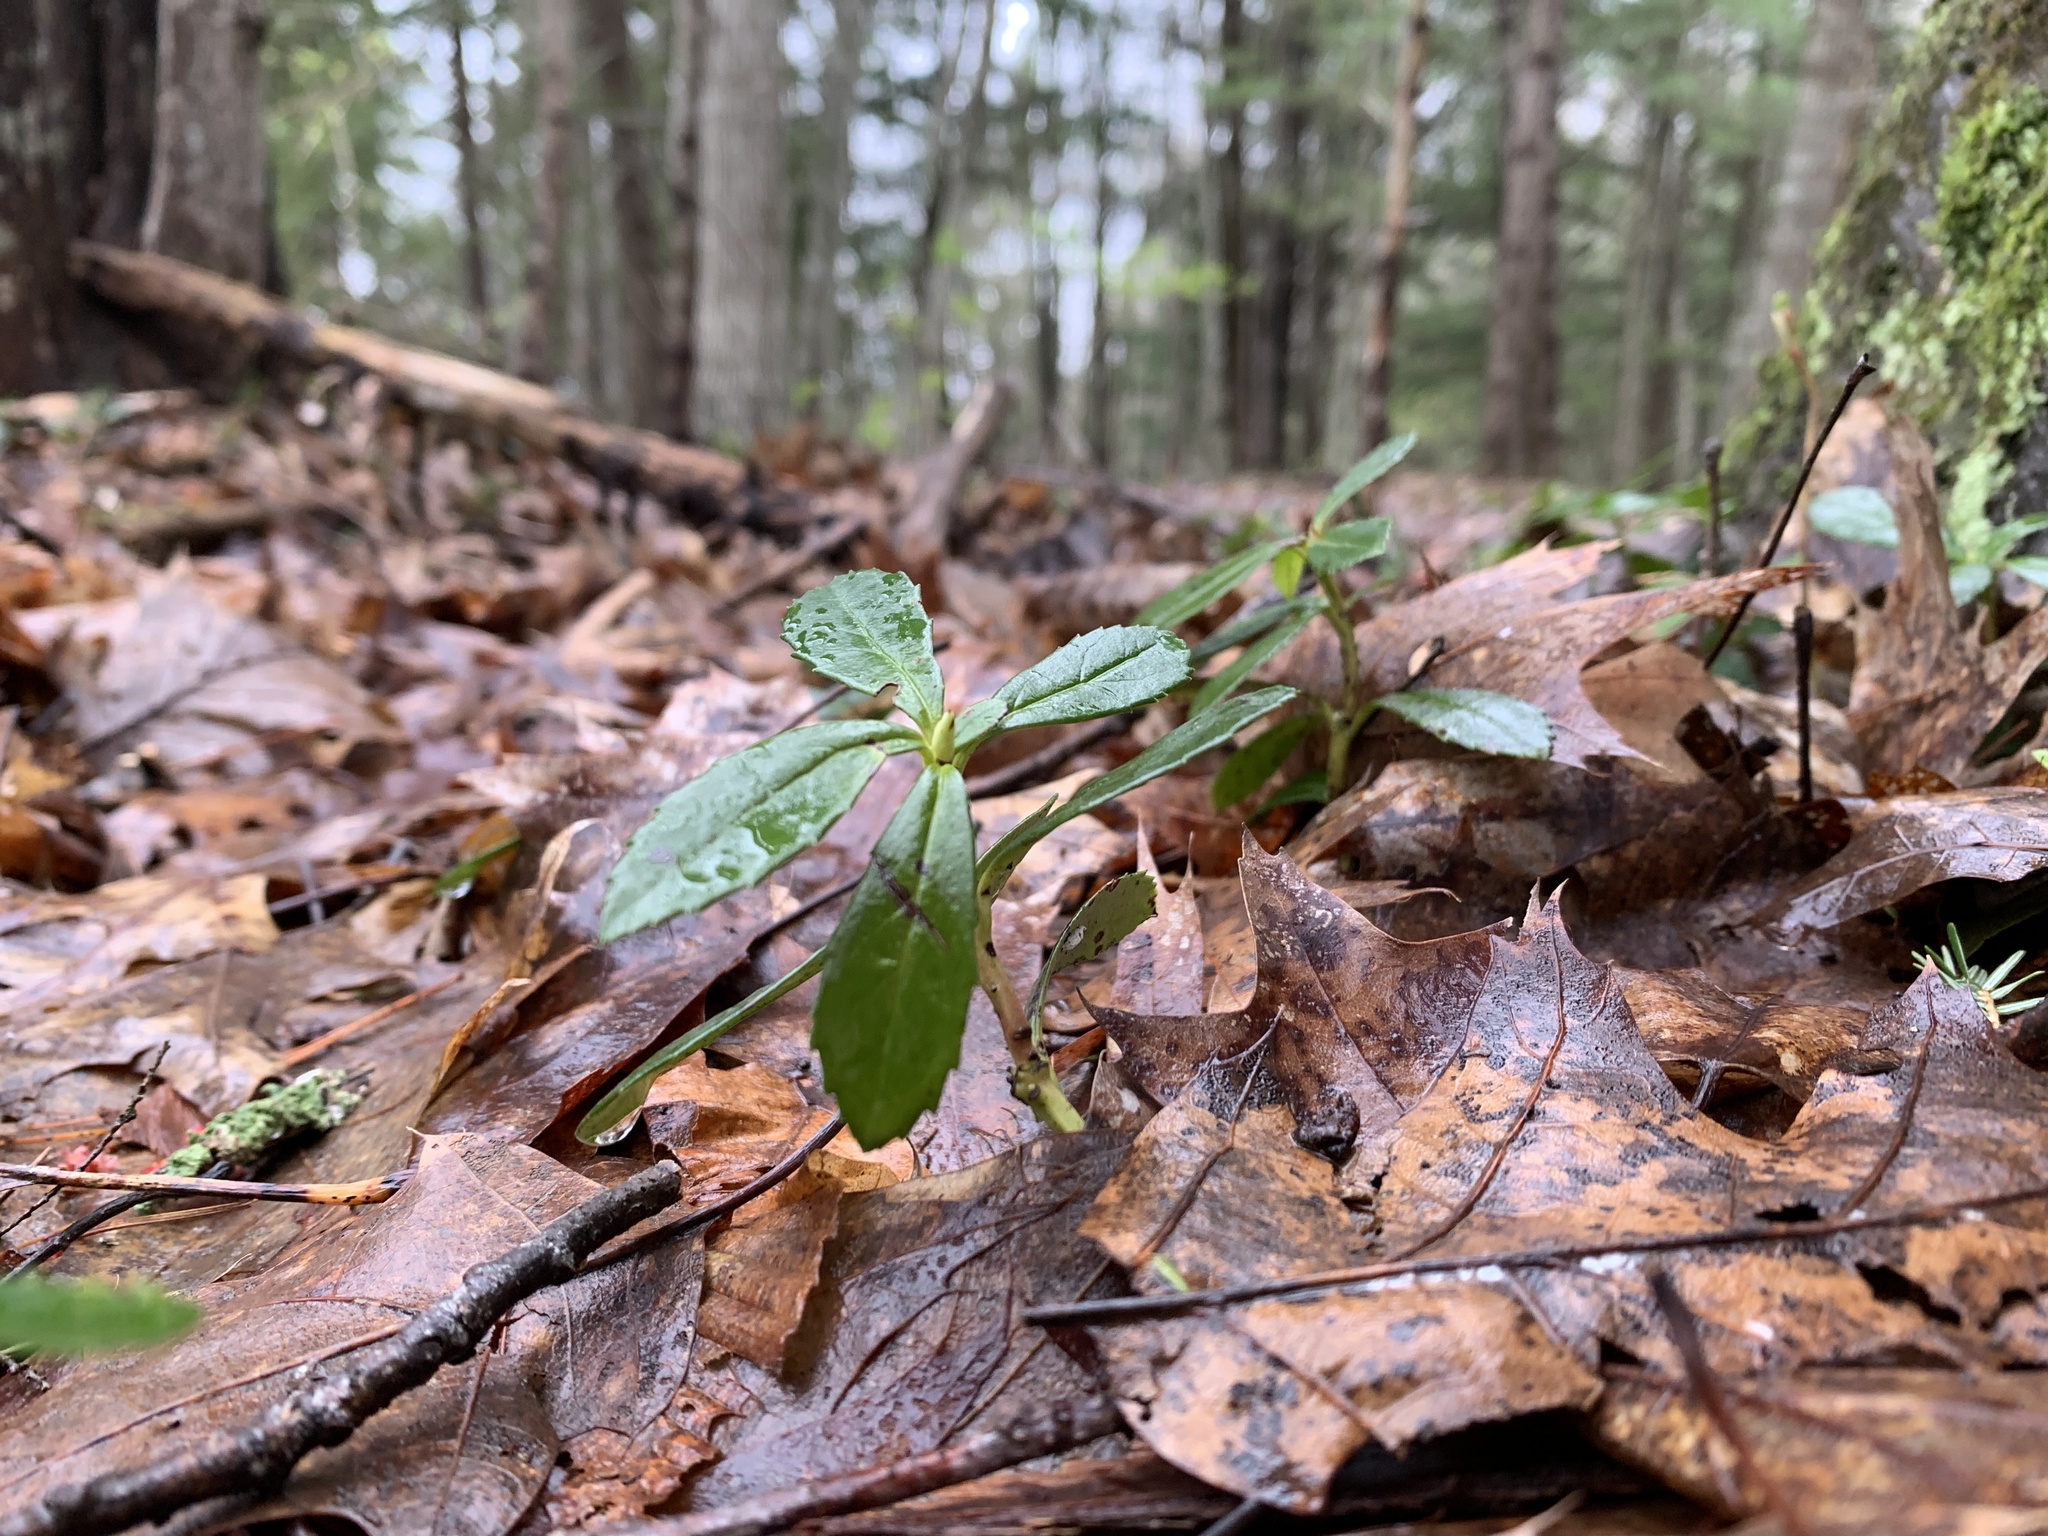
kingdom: Plantae
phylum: Tracheophyta
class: Magnoliopsida
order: Ericales
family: Ericaceae
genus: Chimaphila
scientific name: Chimaphila umbellata
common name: Pipsissewa
